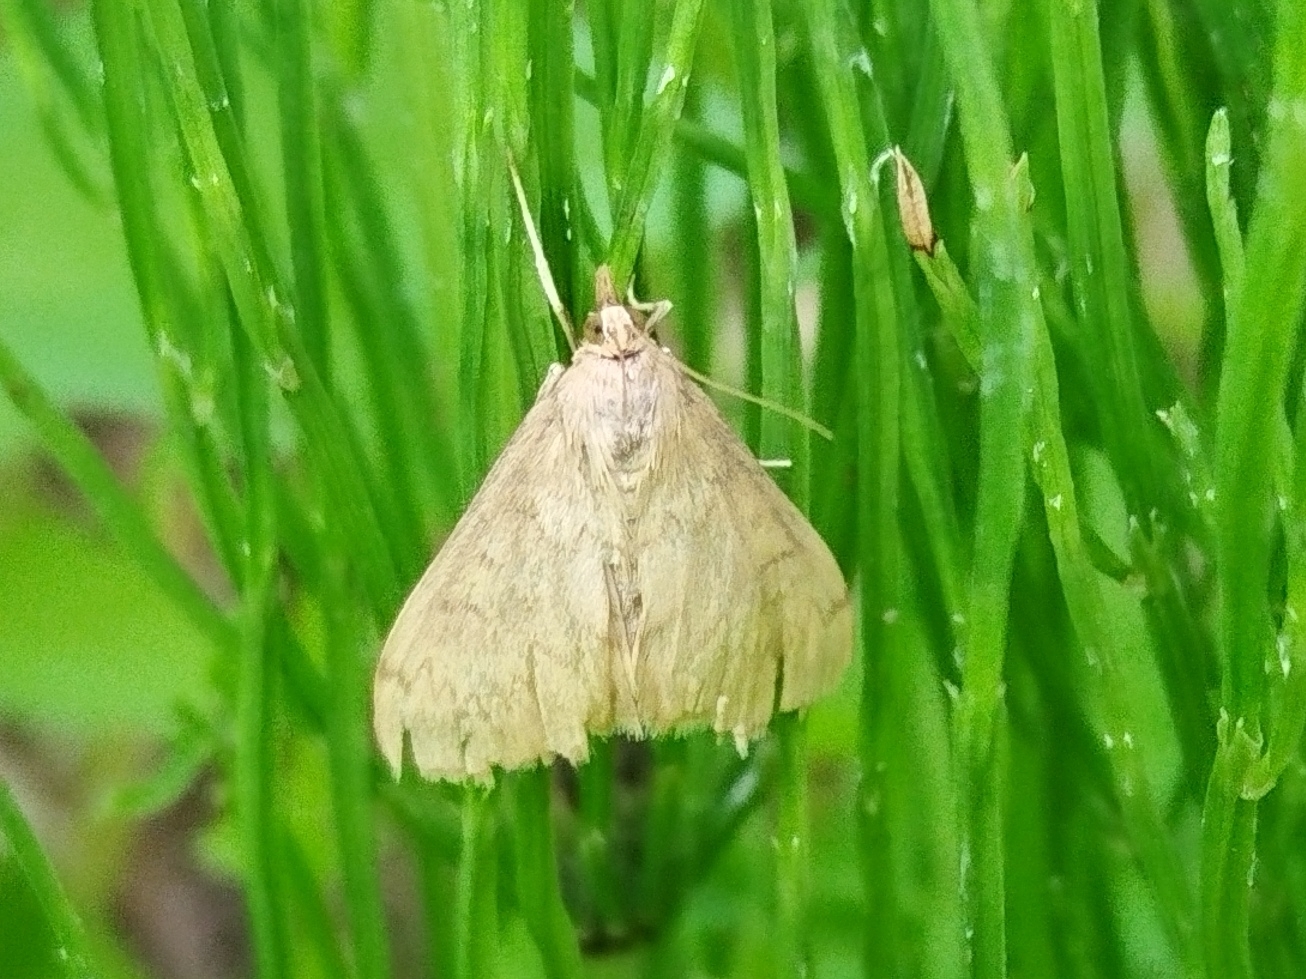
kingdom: Animalia
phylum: Arthropoda
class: Insecta
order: Lepidoptera
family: Crambidae
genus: Ostrinia
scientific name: Ostrinia nubilalis
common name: European corn borer
